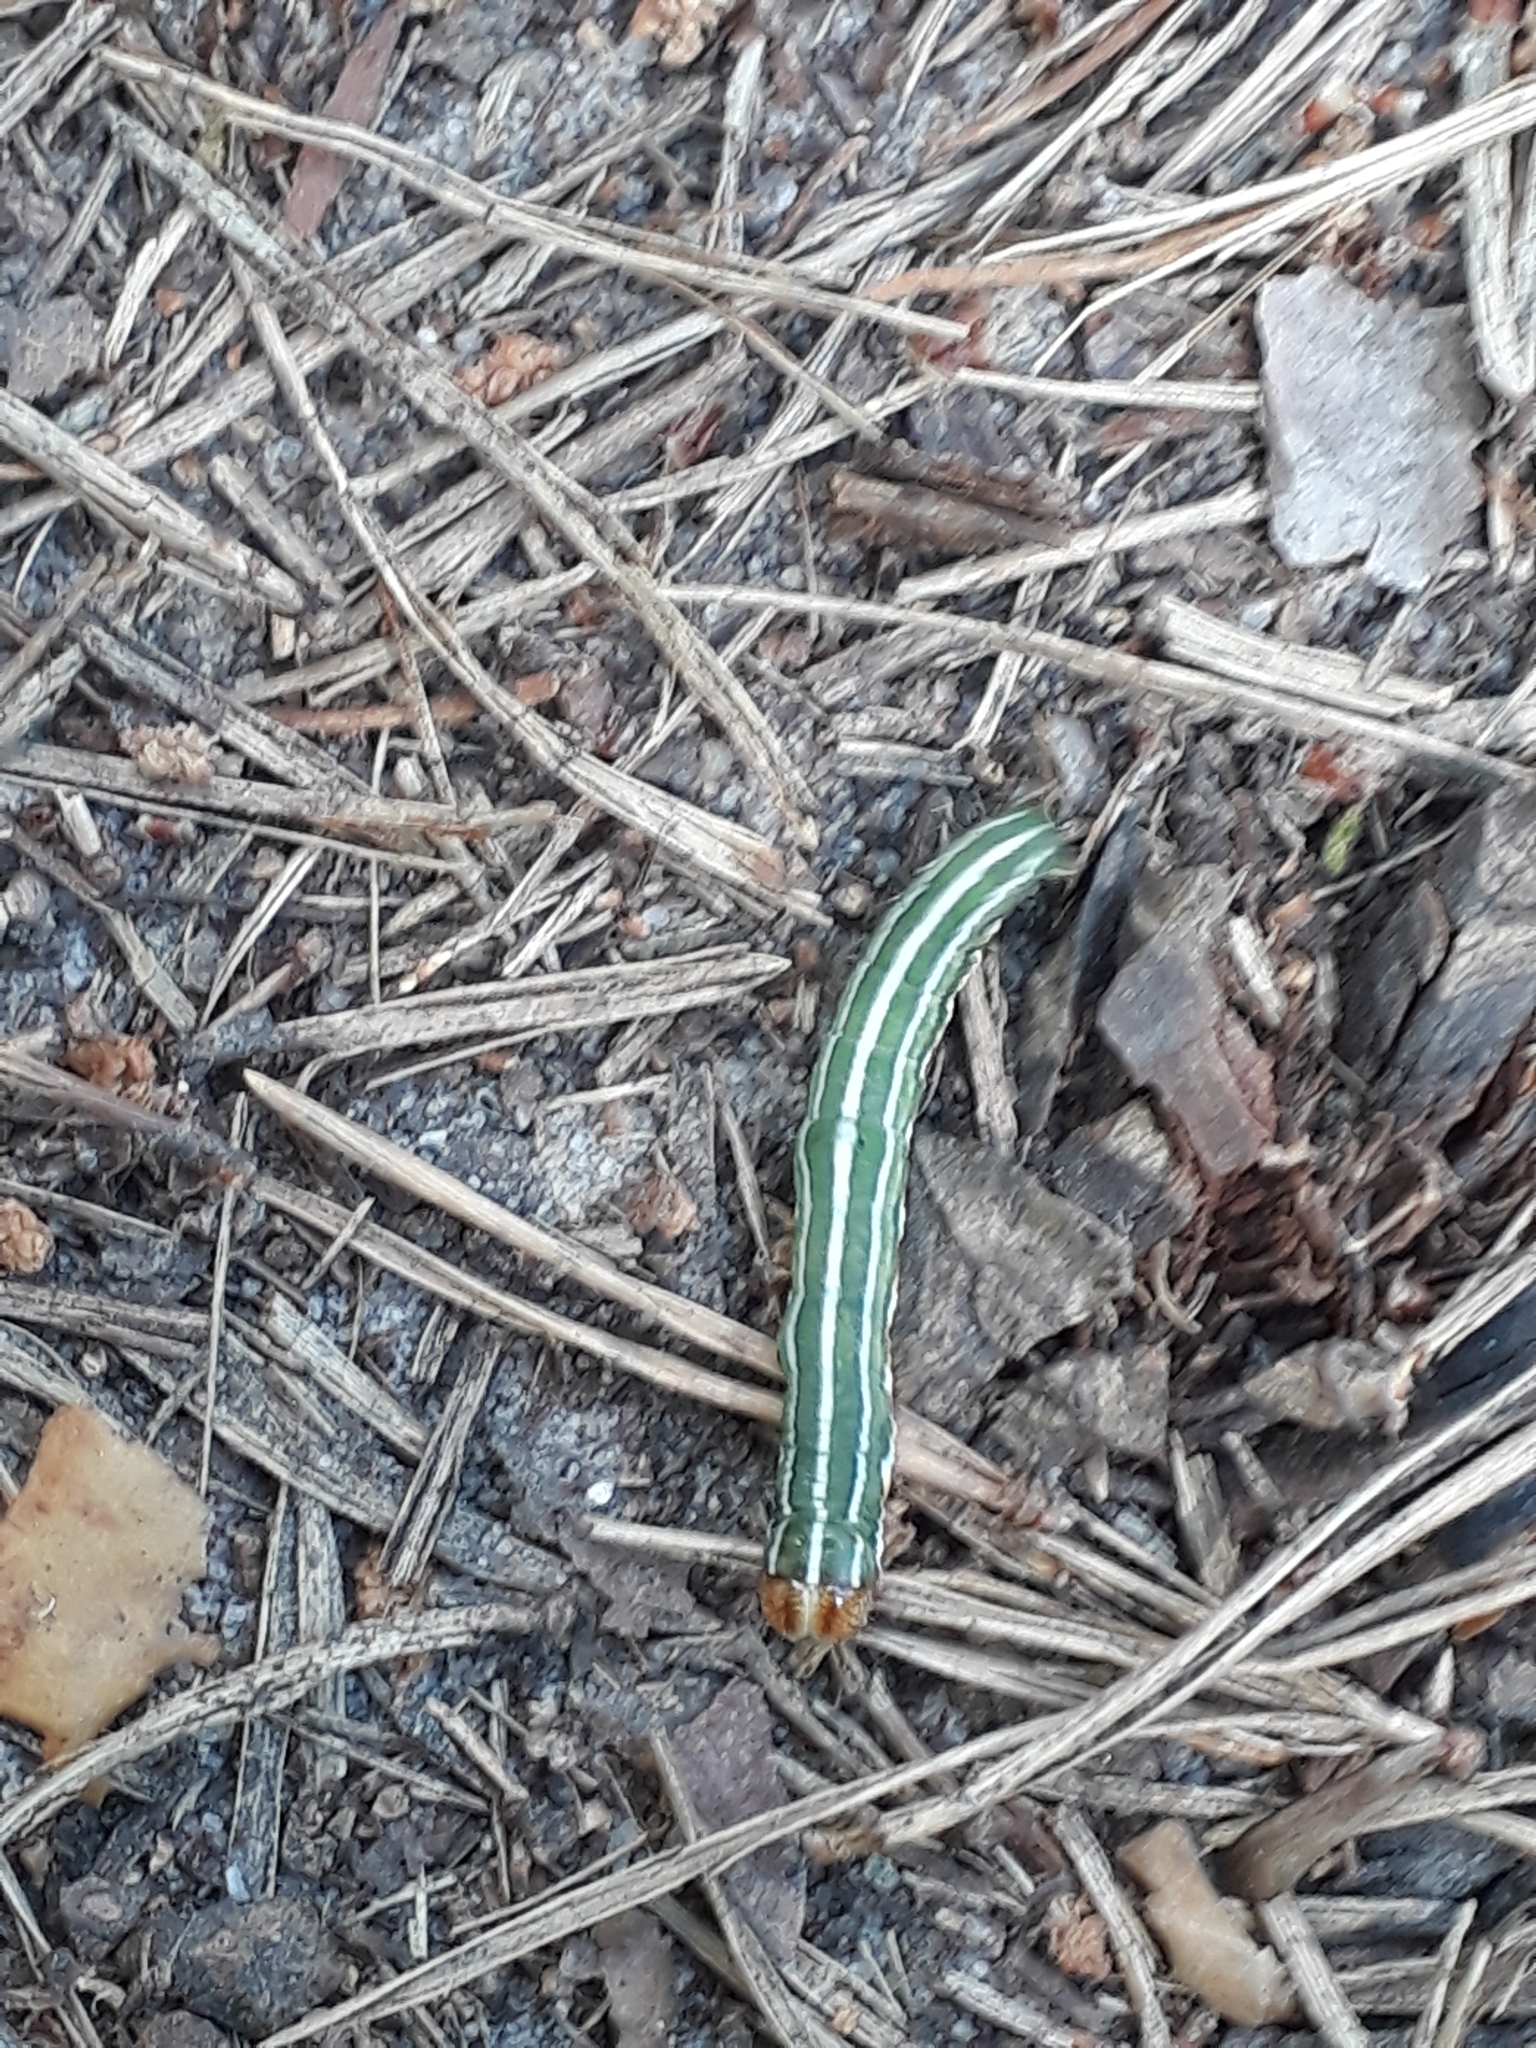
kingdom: Animalia
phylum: Arthropoda
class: Insecta
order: Lepidoptera
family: Noctuidae
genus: Panolis
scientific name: Panolis flammea
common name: Pine beauty
